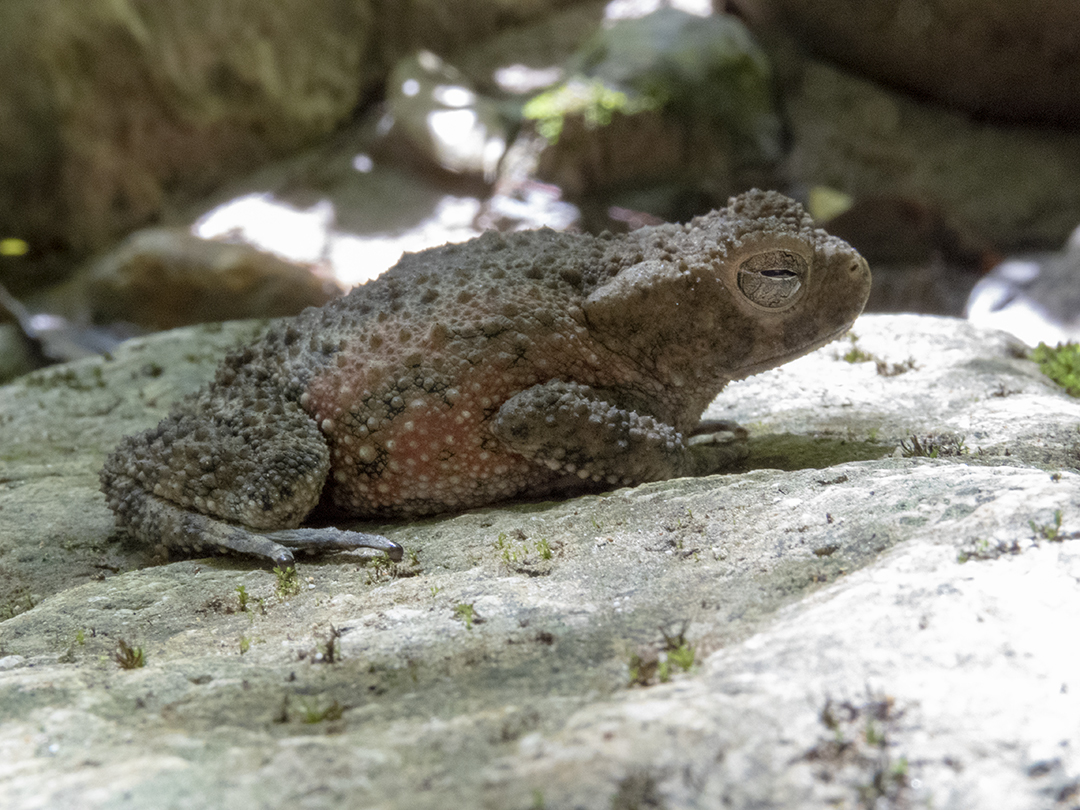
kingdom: Animalia
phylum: Chordata
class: Amphibia
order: Anura
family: Bufonidae
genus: Phrynoidis
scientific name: Phrynoidis asper
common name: Asian giant toad
